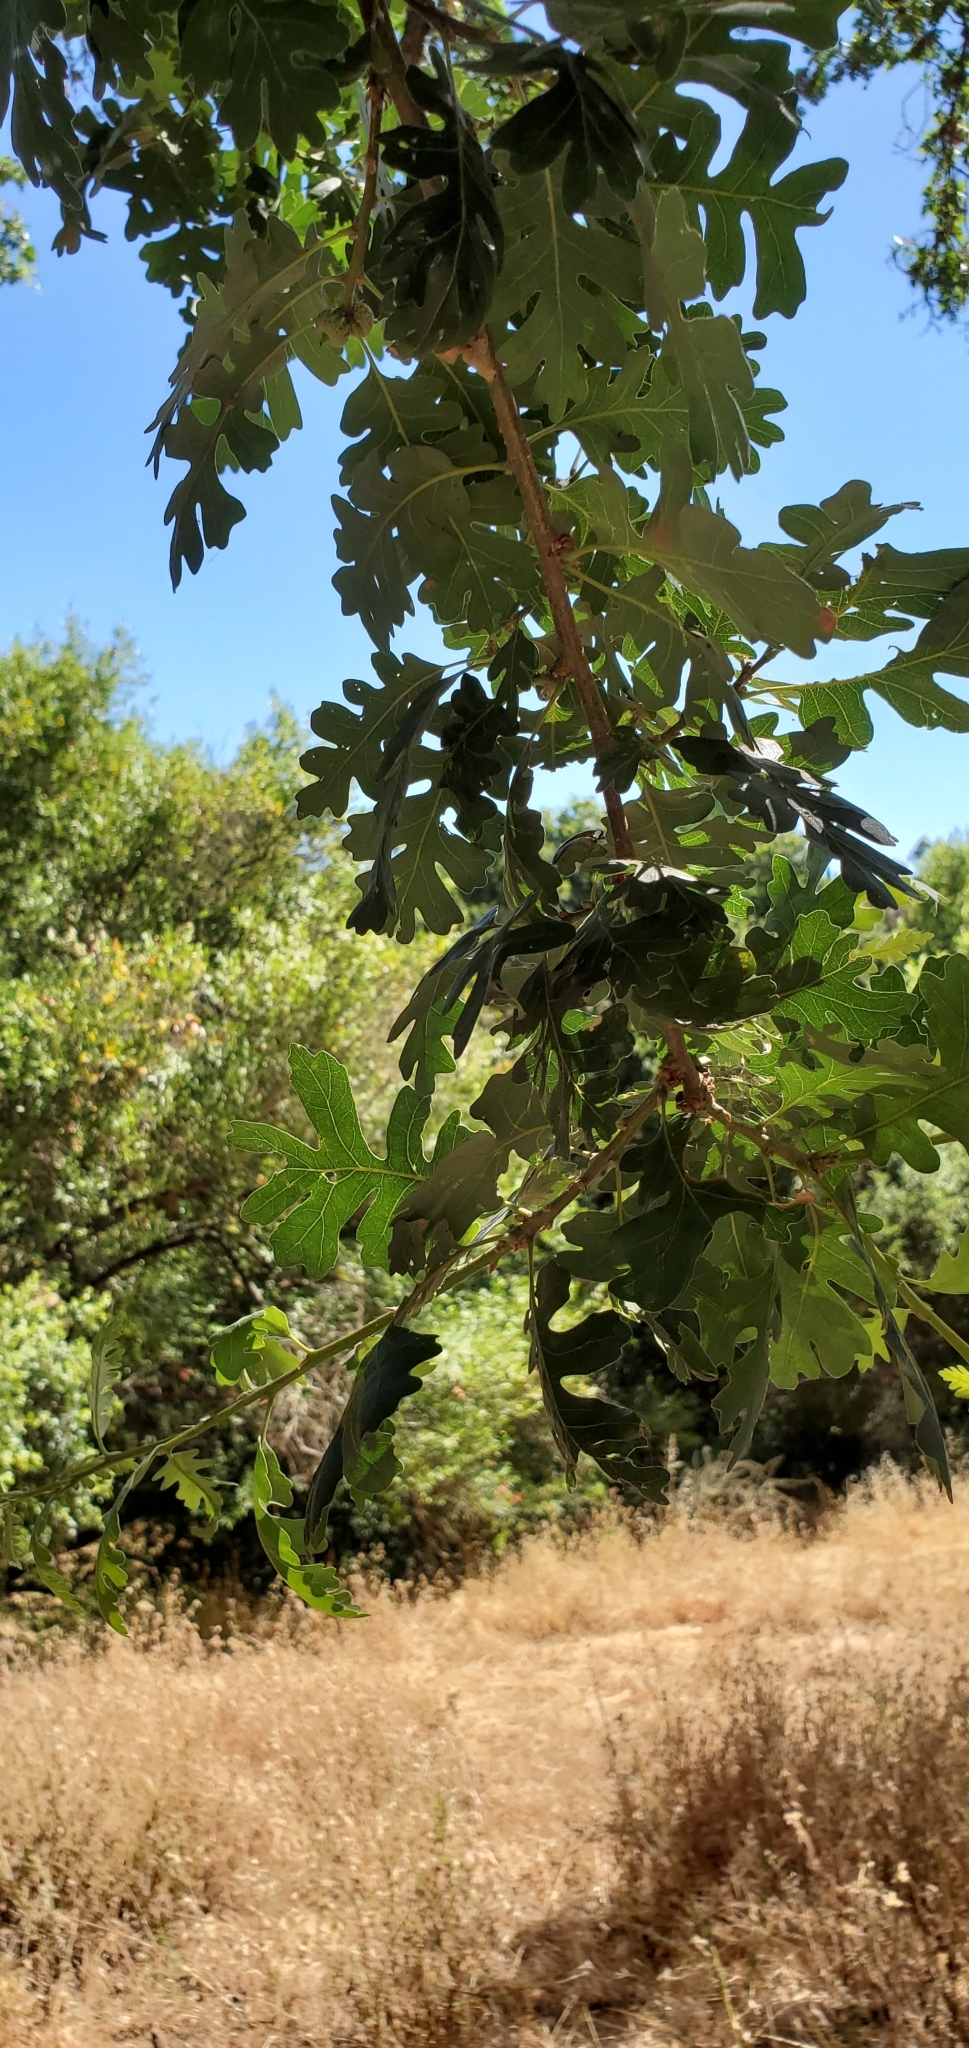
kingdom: Plantae
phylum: Tracheophyta
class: Magnoliopsida
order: Fagales
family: Fagaceae
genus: Quercus
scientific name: Quercus lobata
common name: Valley oak
